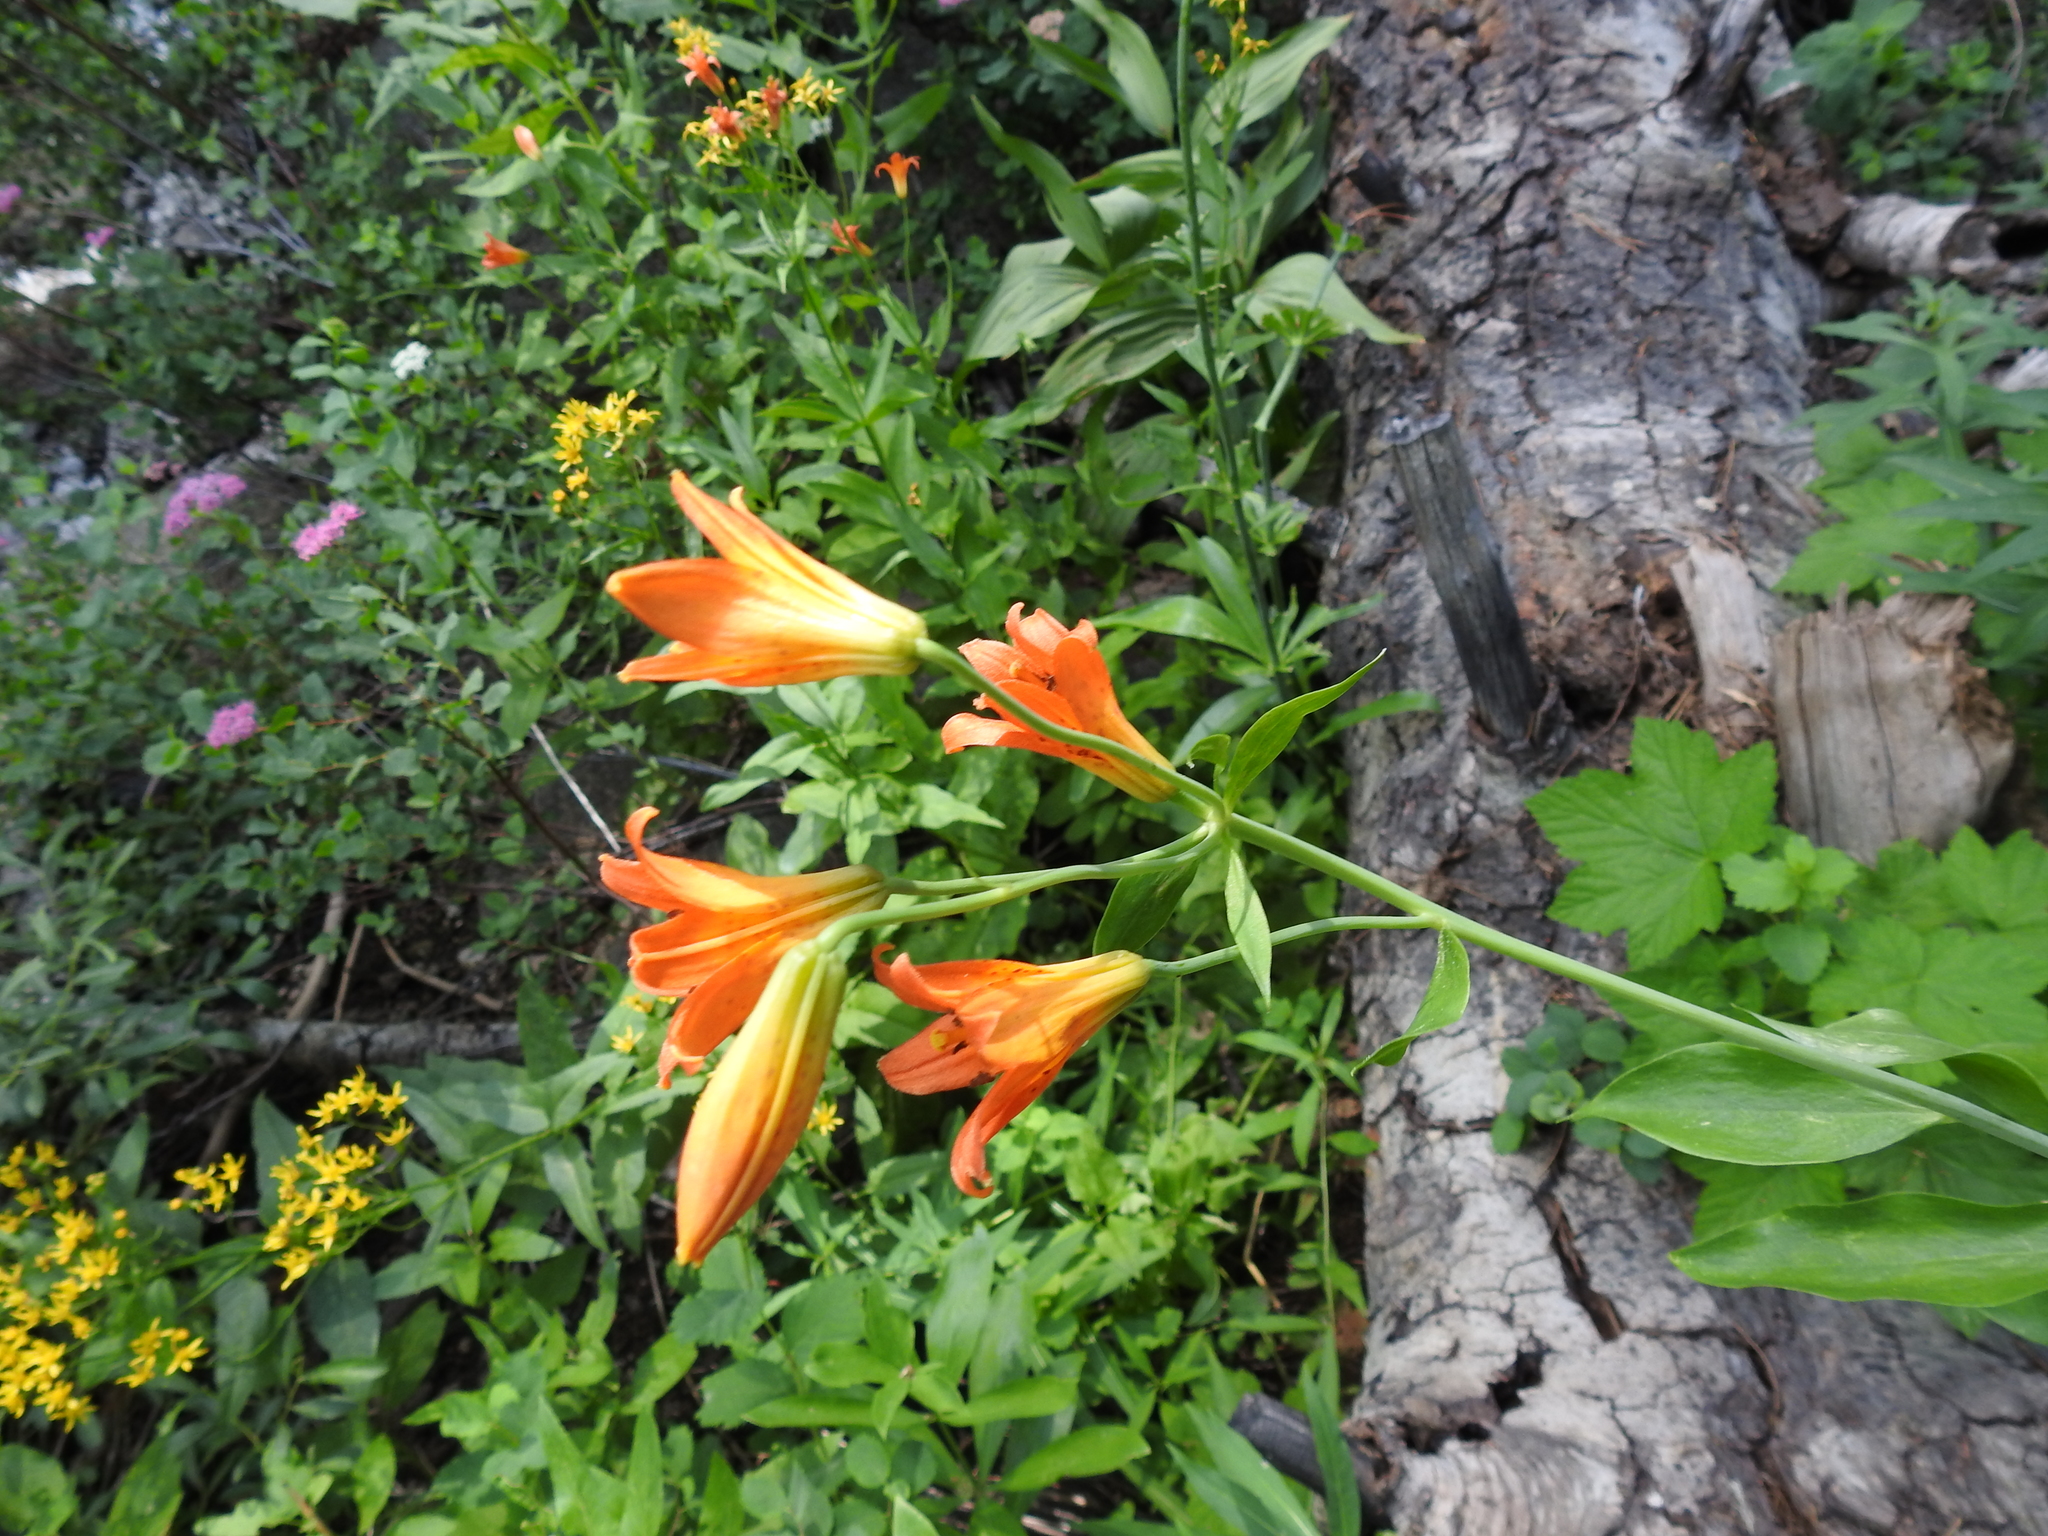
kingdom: Plantae
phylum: Tracheophyta
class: Liliopsida
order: Liliales
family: Liliaceae
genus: Lilium
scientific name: Lilium parvum
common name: Alpine lily
